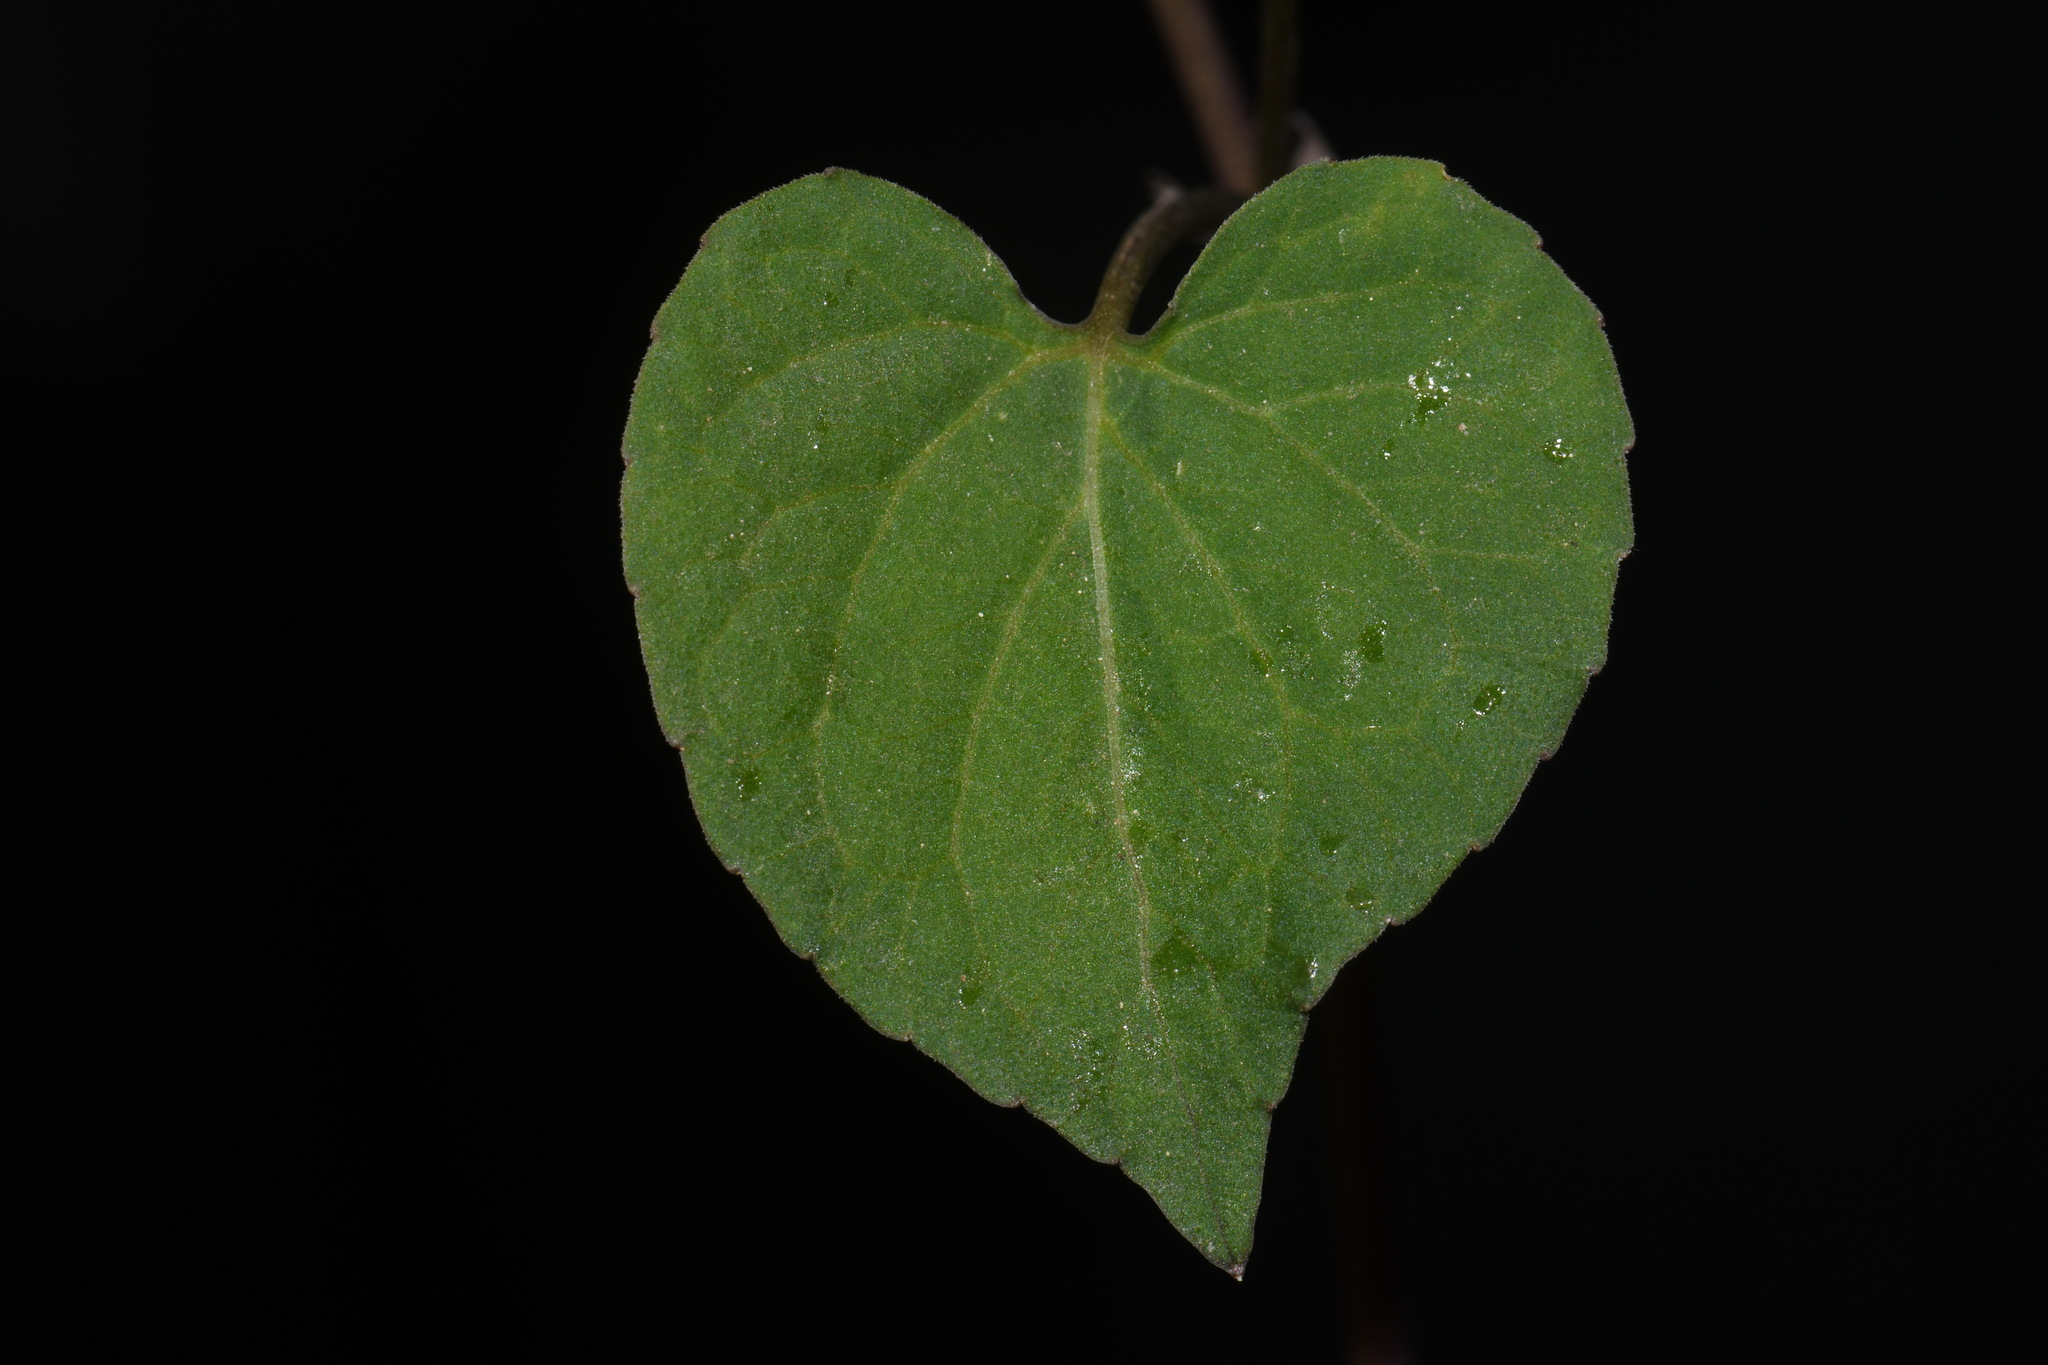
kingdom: Plantae
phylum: Tracheophyta
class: Magnoliopsida
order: Malpighiales
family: Violaceae
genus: Viola
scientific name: Viola scopulorum
